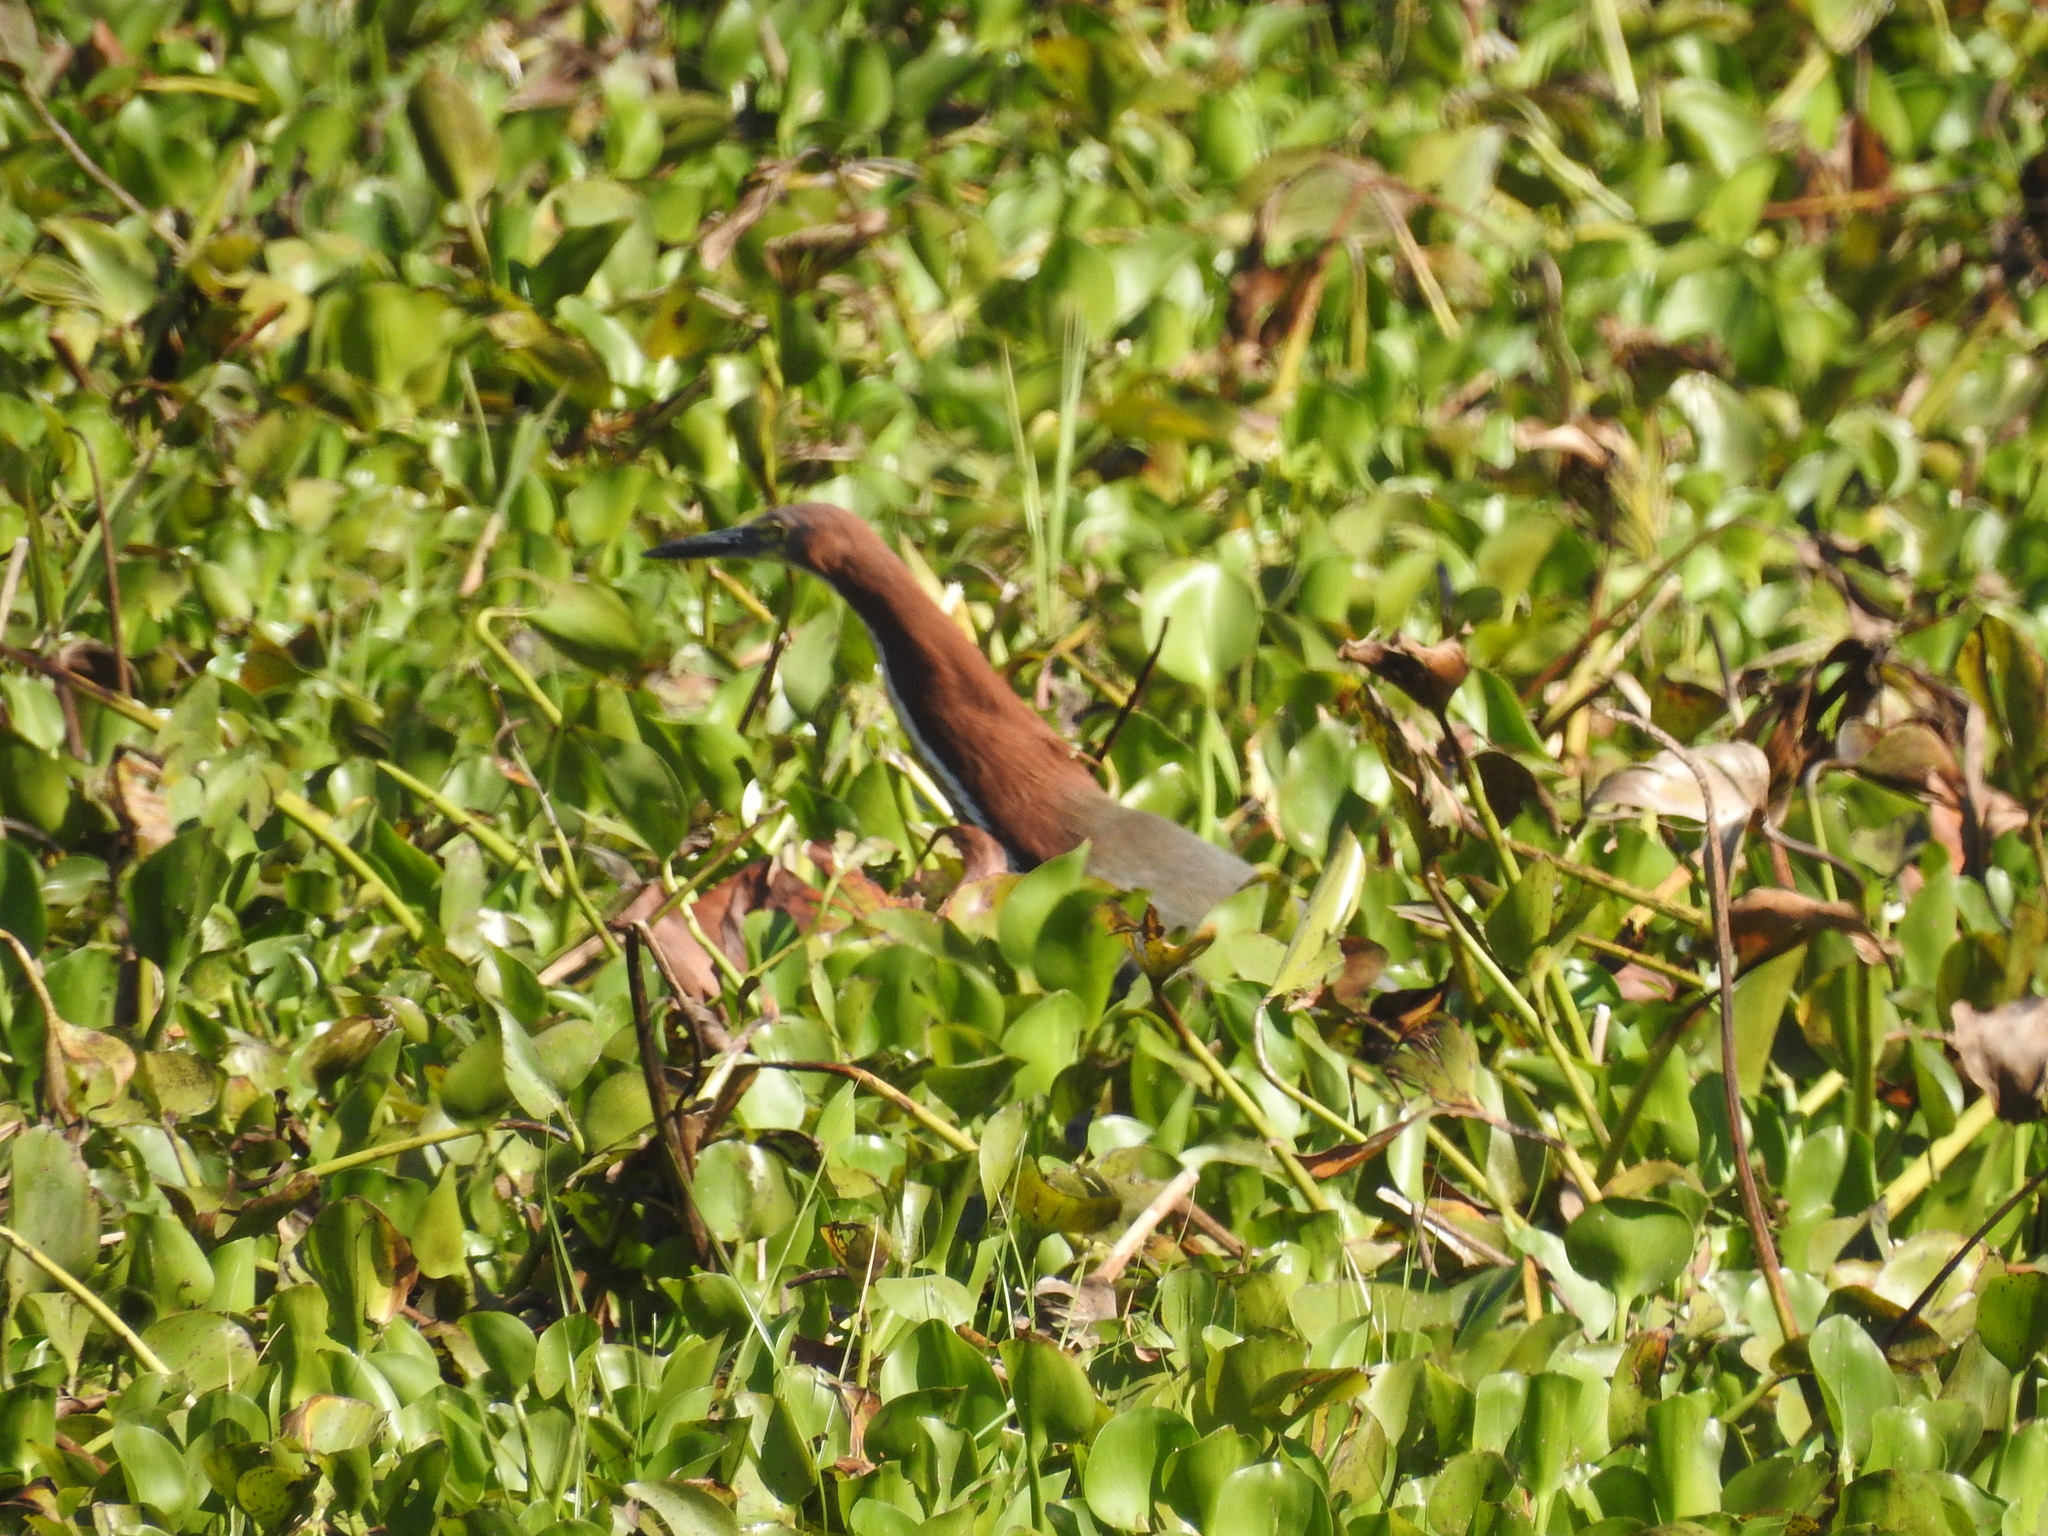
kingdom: Animalia
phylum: Chordata
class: Aves
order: Pelecaniformes
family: Ardeidae
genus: Tigrisoma
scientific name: Tigrisoma lineatum
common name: Rufescent tiger-heron
